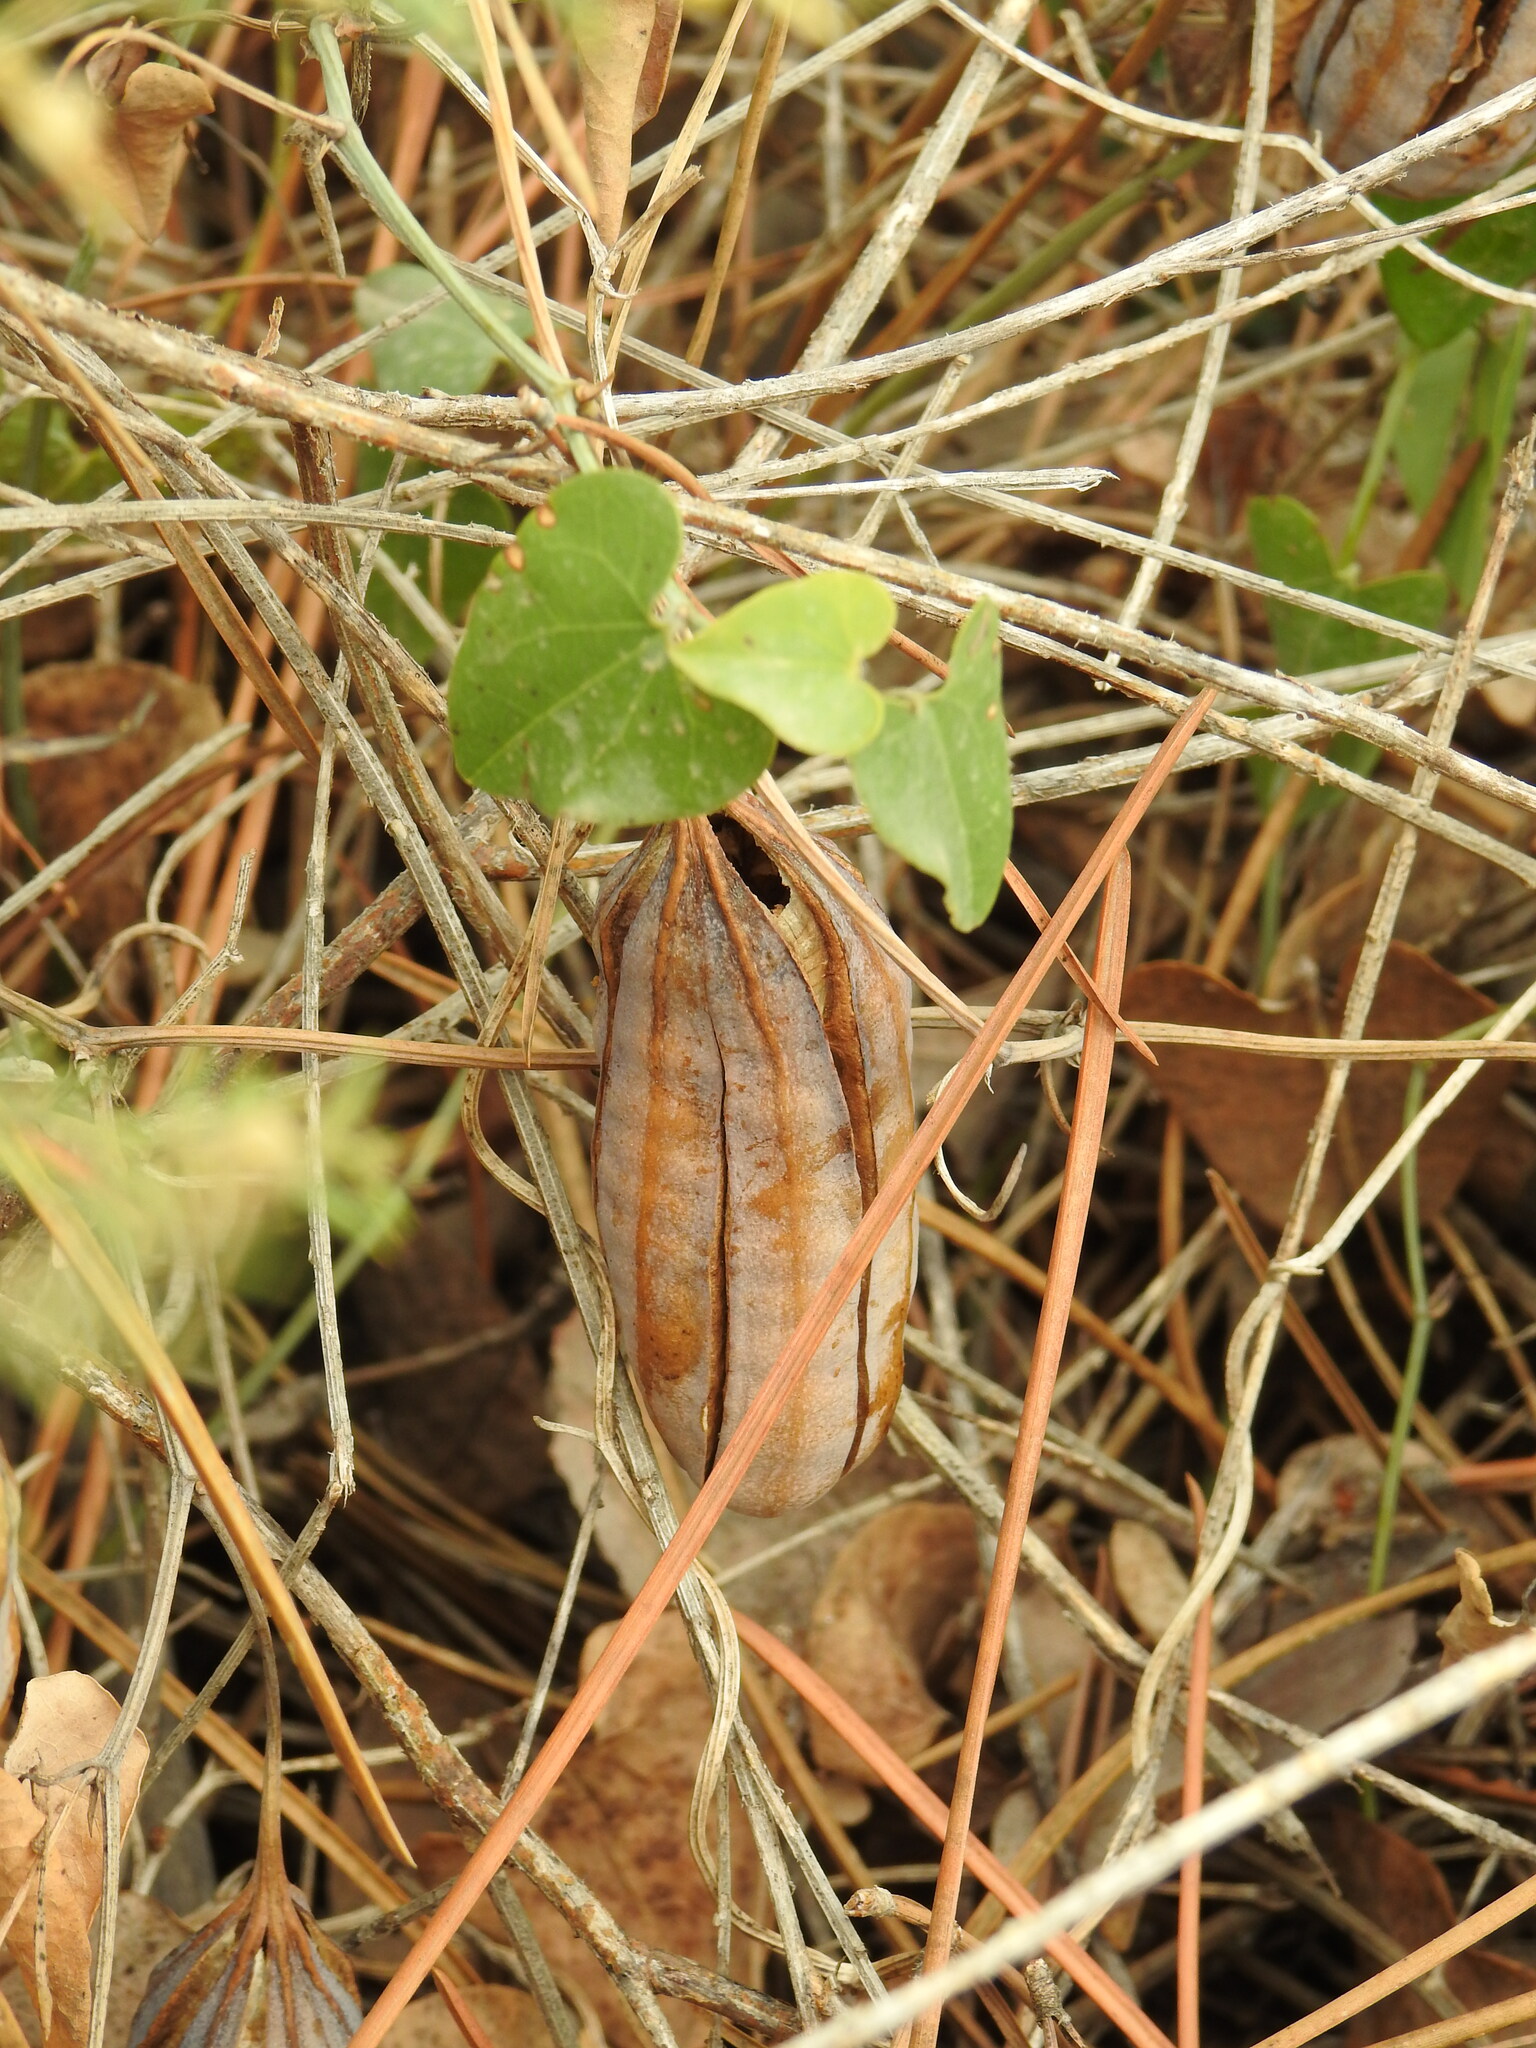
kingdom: Plantae
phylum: Tracheophyta
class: Magnoliopsida
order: Piperales
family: Aristolochiaceae
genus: Aristolochia
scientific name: Aristolochia baetica
